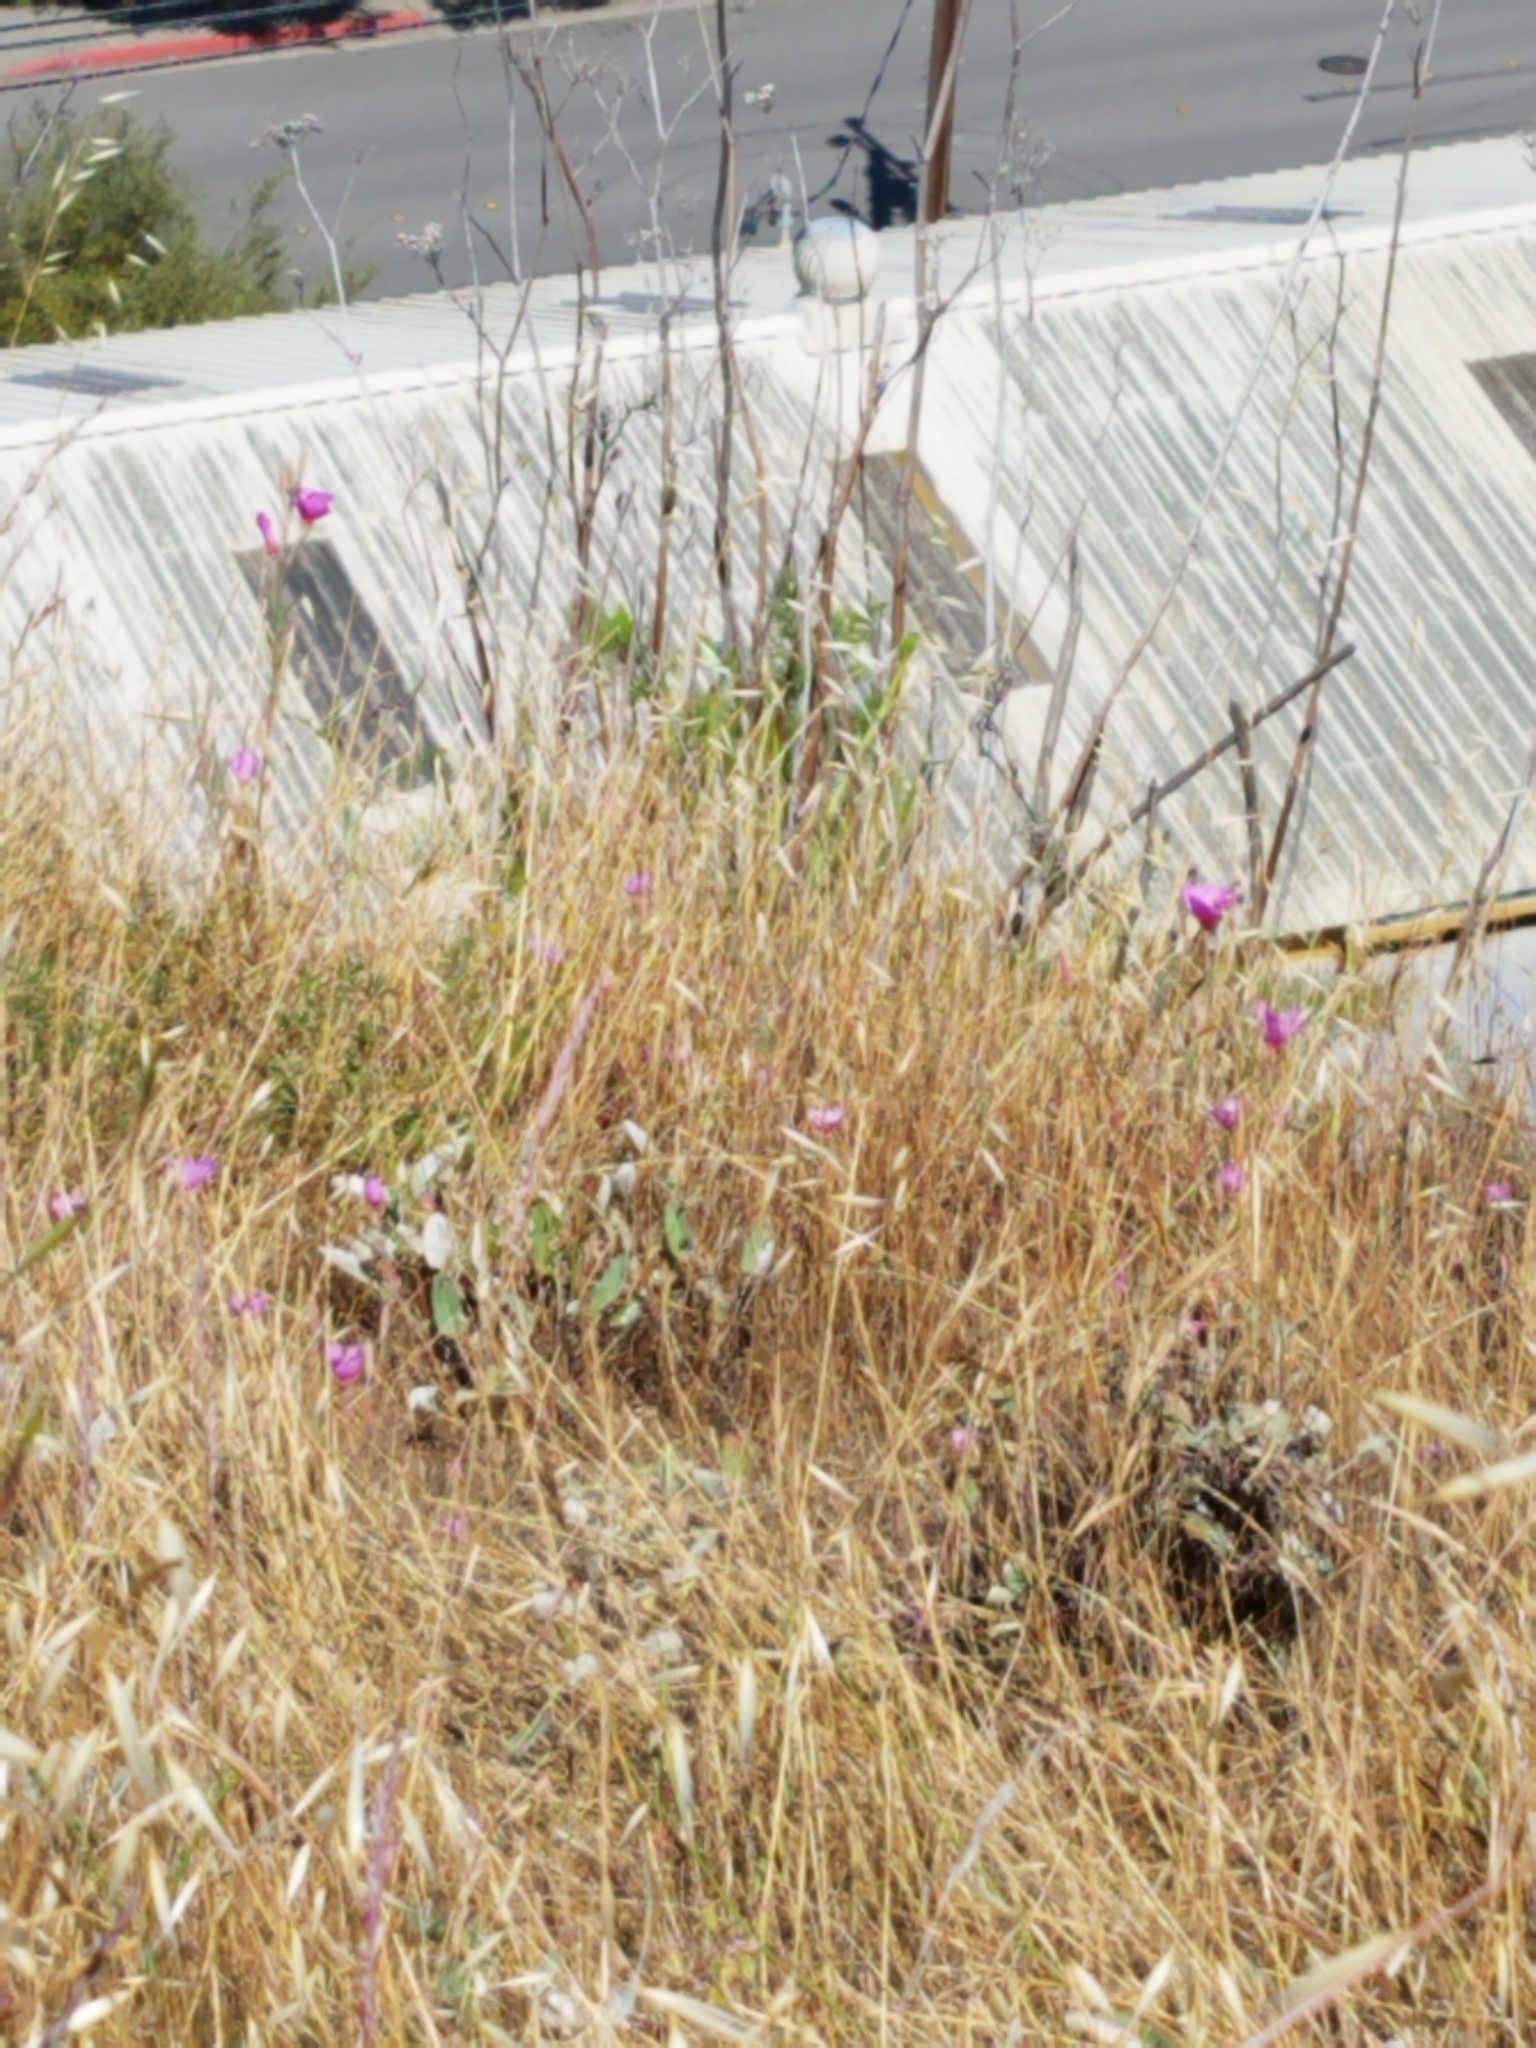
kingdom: Plantae
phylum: Tracheophyta
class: Magnoliopsida
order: Myrtales
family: Onagraceae
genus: Clarkia
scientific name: Clarkia rubicunda
